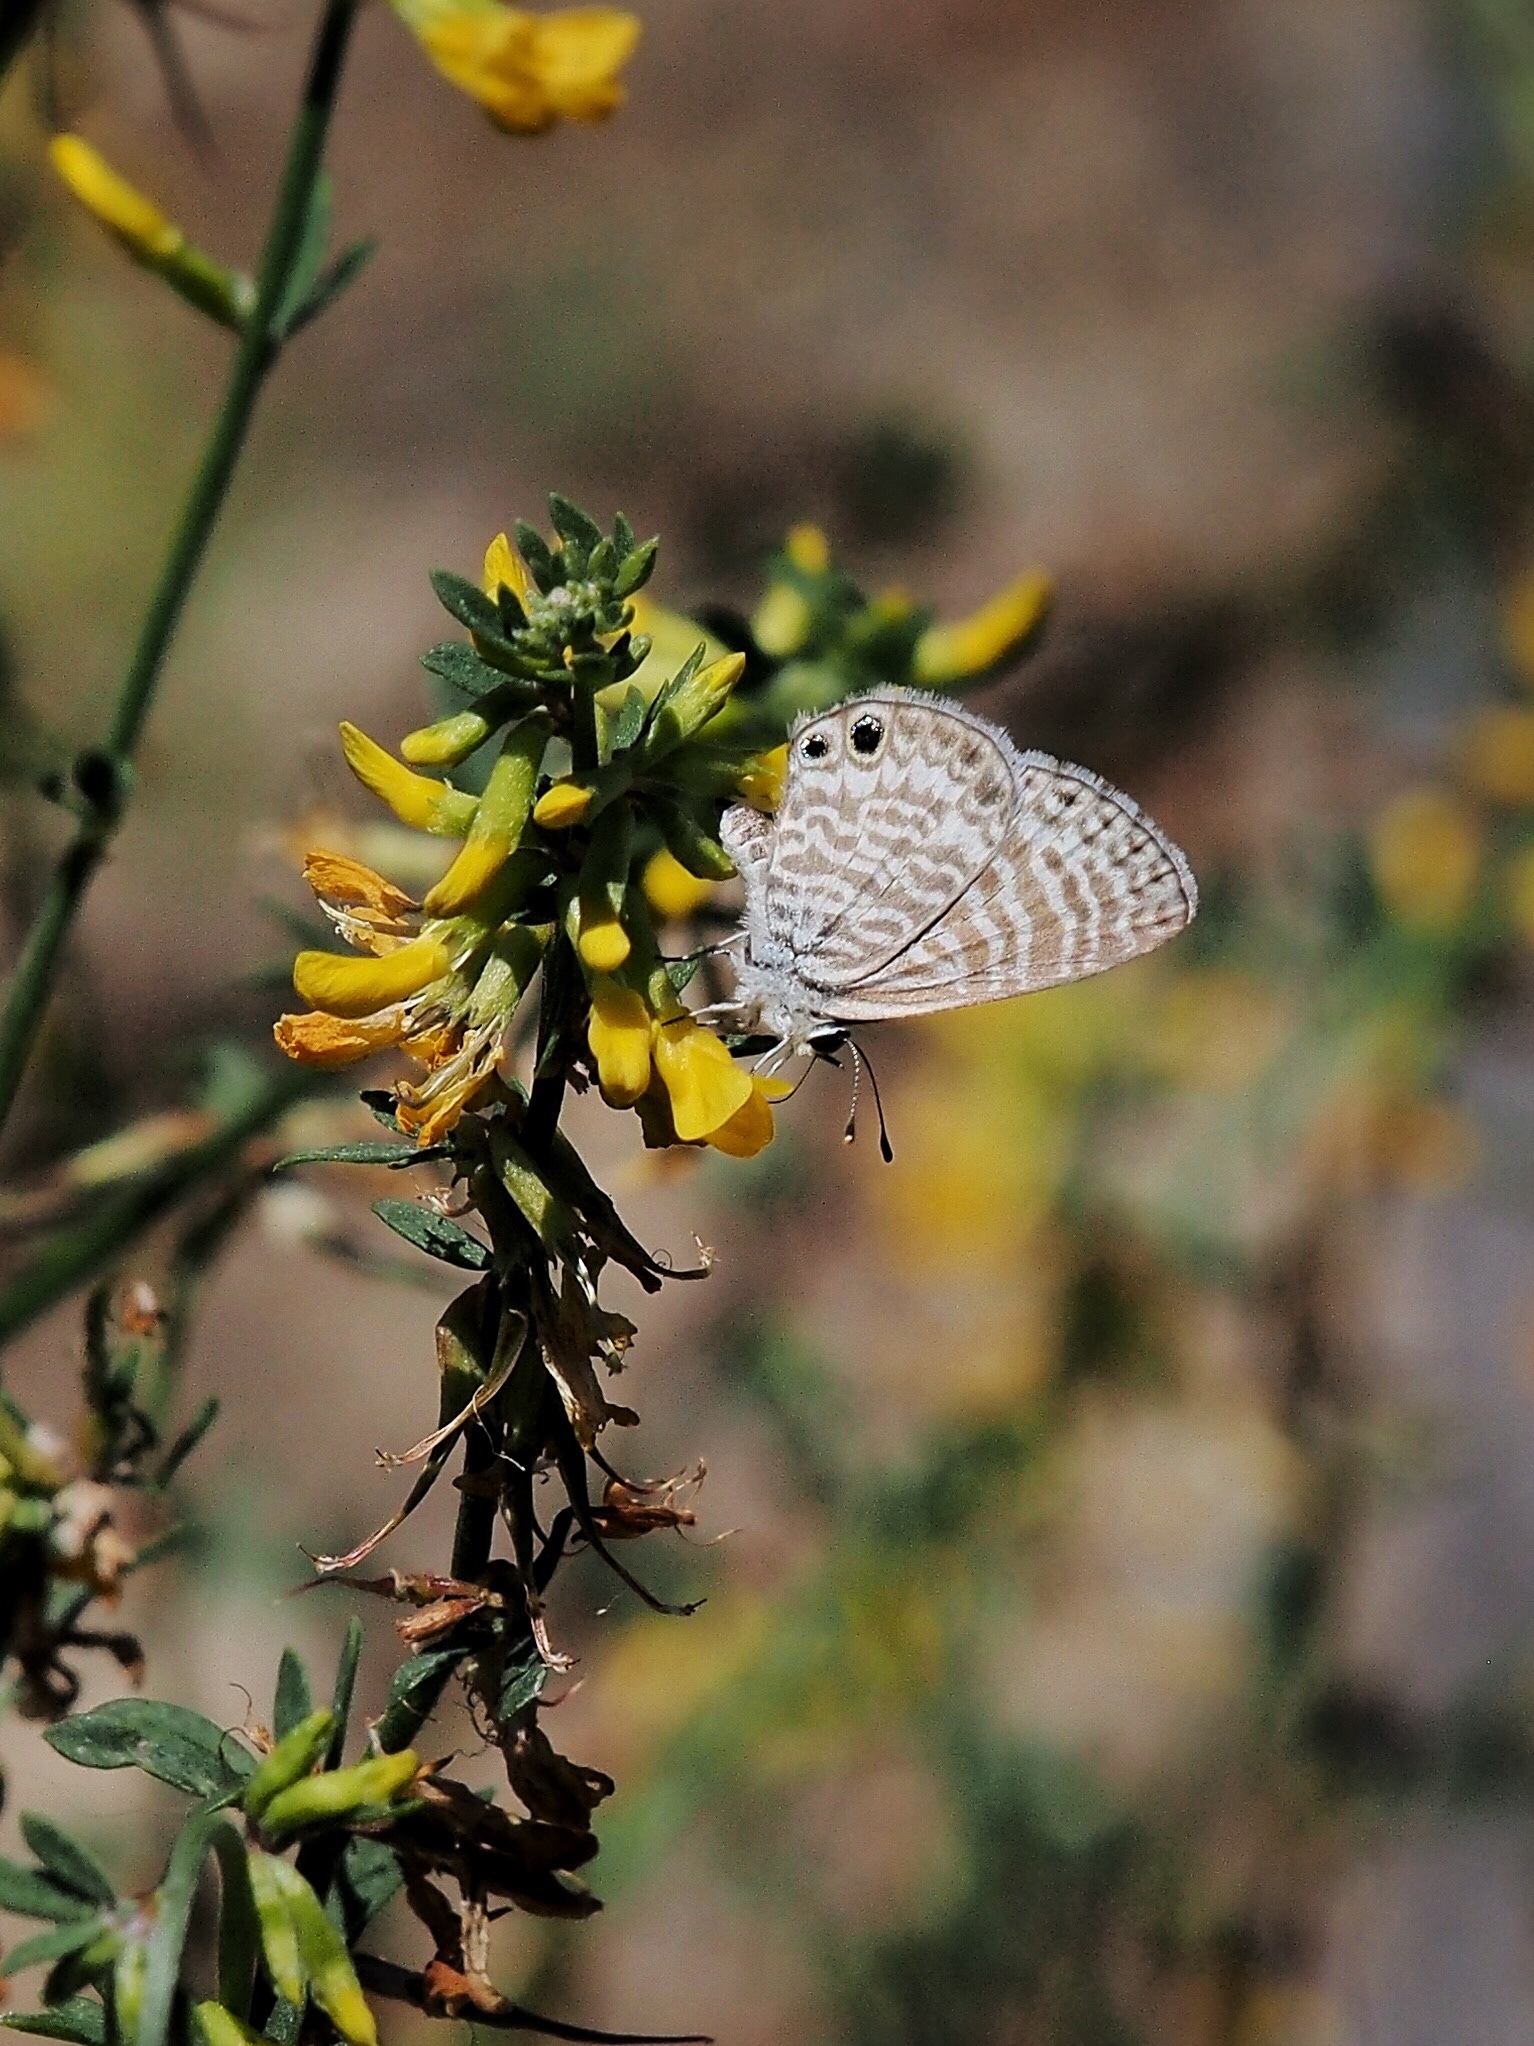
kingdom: Animalia
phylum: Arthropoda
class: Insecta
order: Lepidoptera
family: Lycaenidae
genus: Leptotes
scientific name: Leptotes marina
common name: Marine blue
